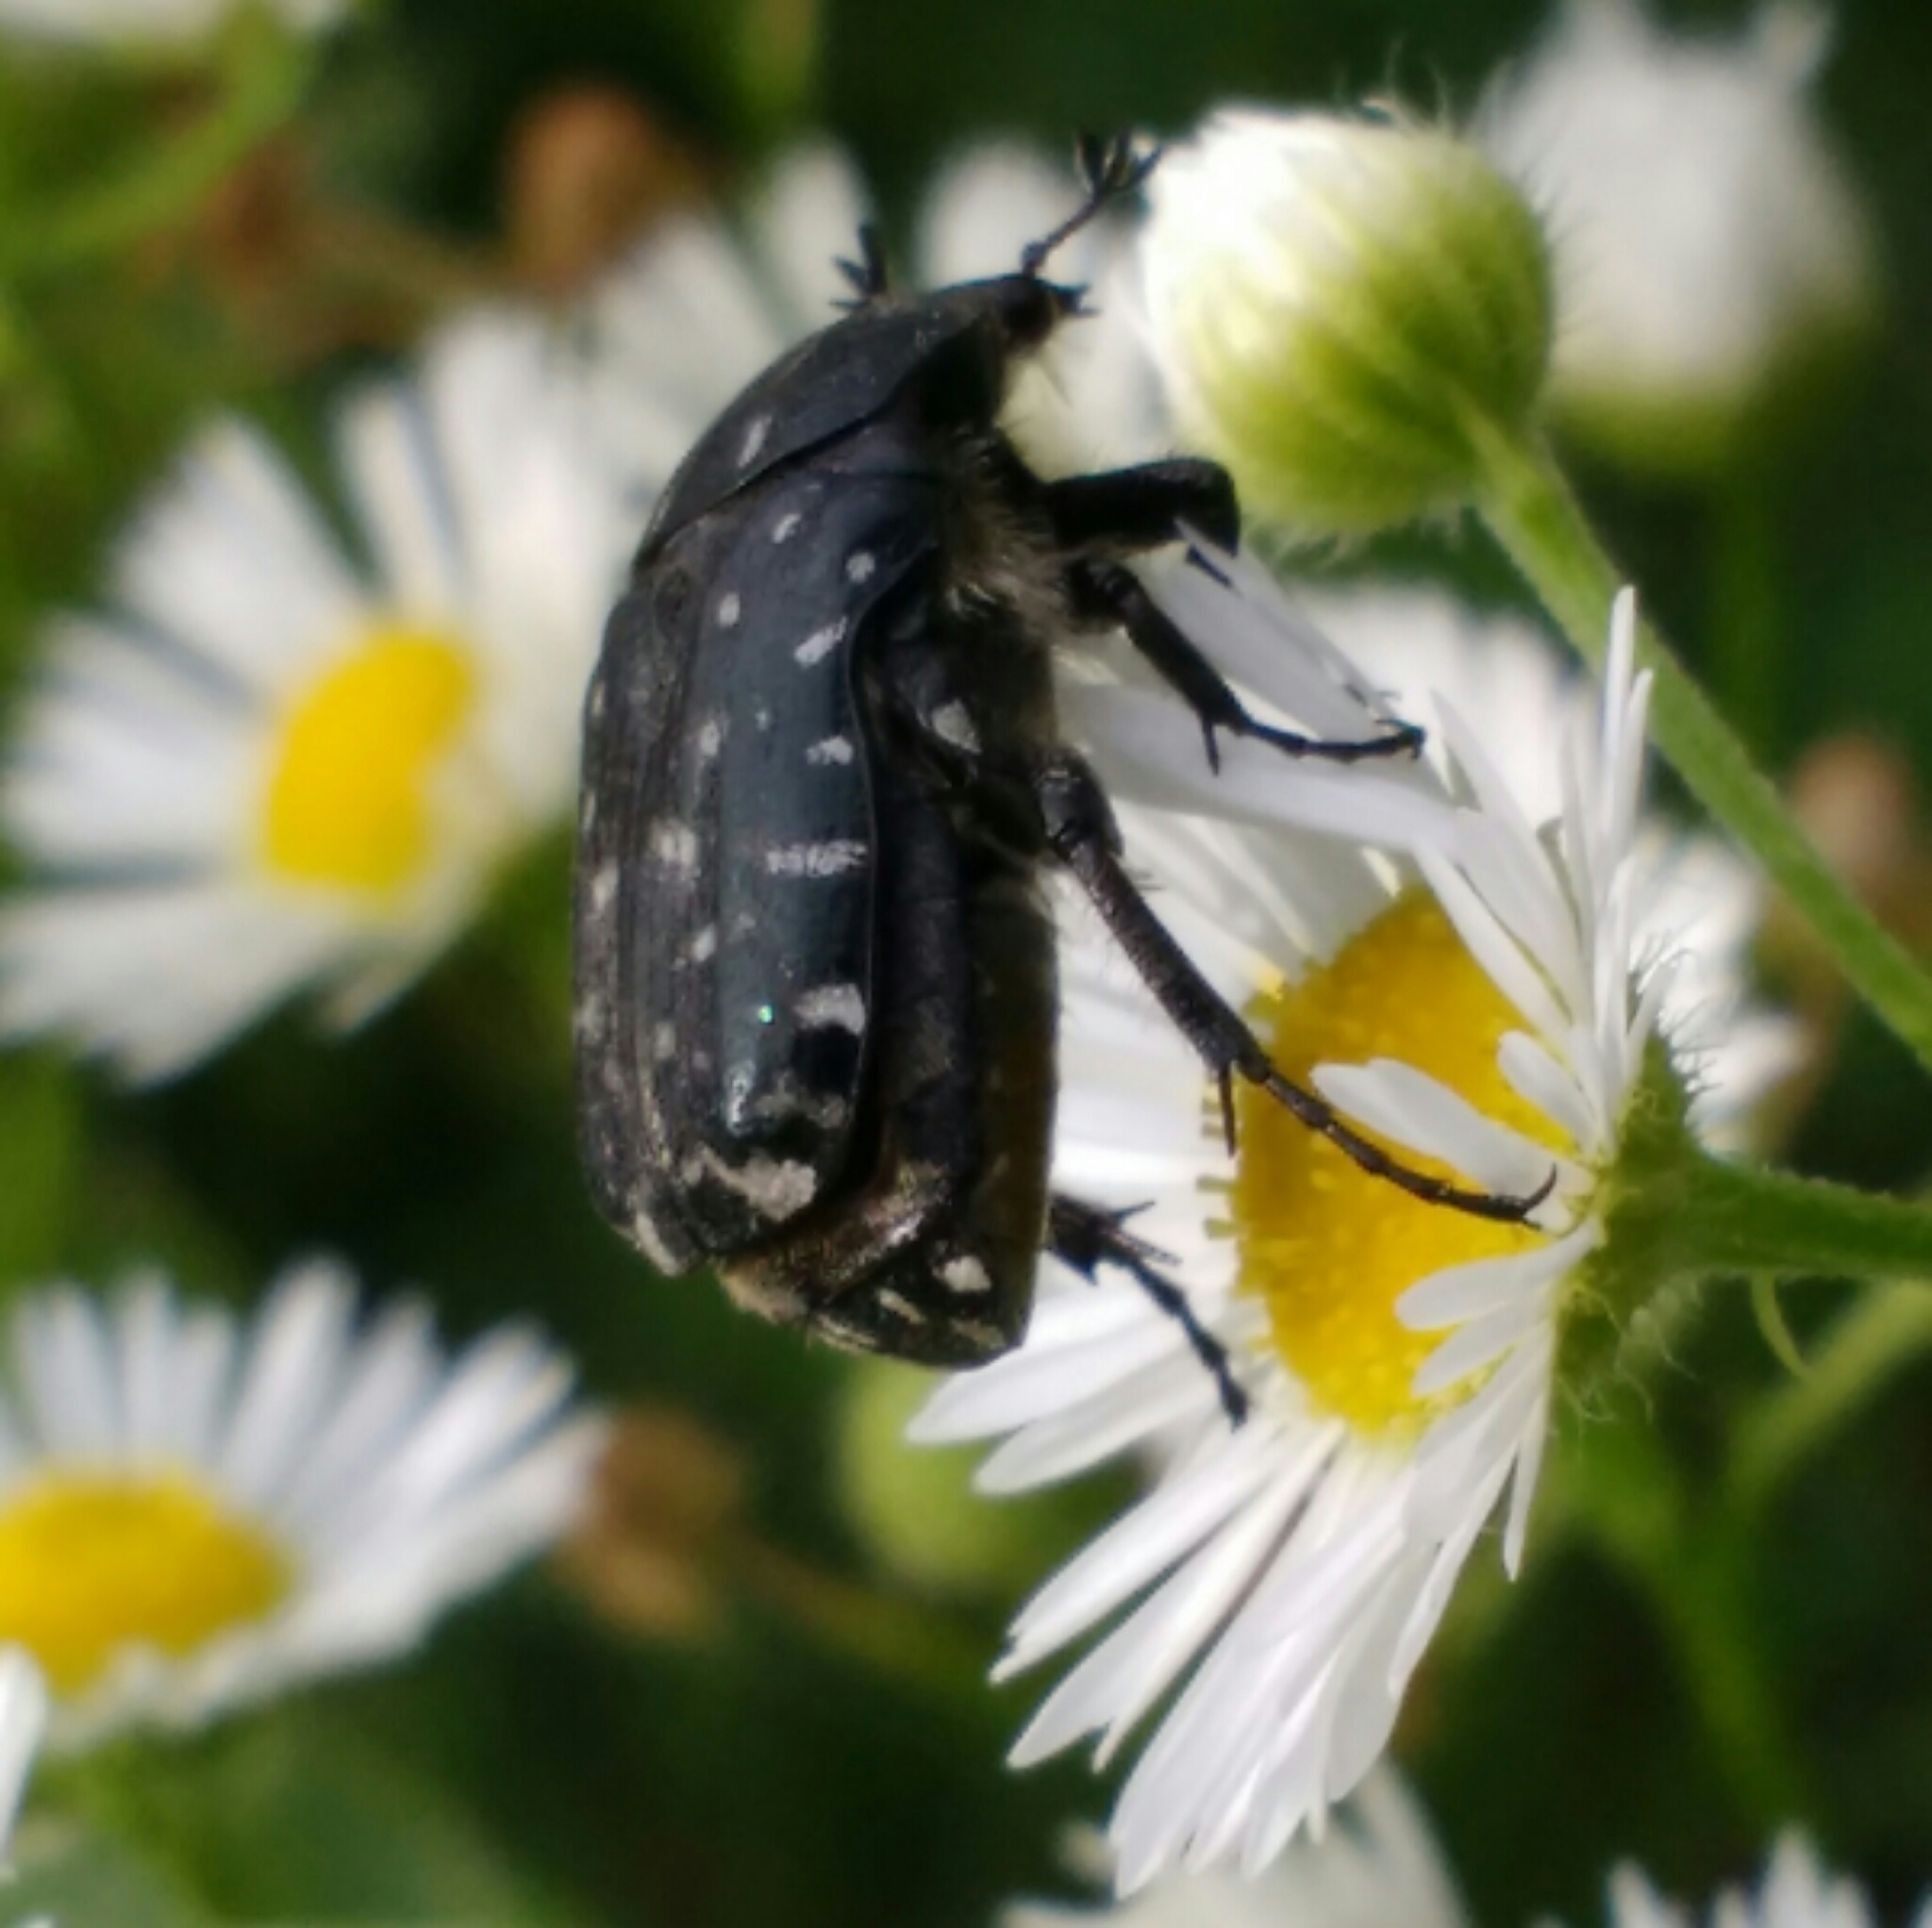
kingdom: Animalia
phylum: Arthropoda
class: Insecta
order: Coleoptera
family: Scarabaeidae
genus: Oxythyrea
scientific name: Oxythyrea funesta
